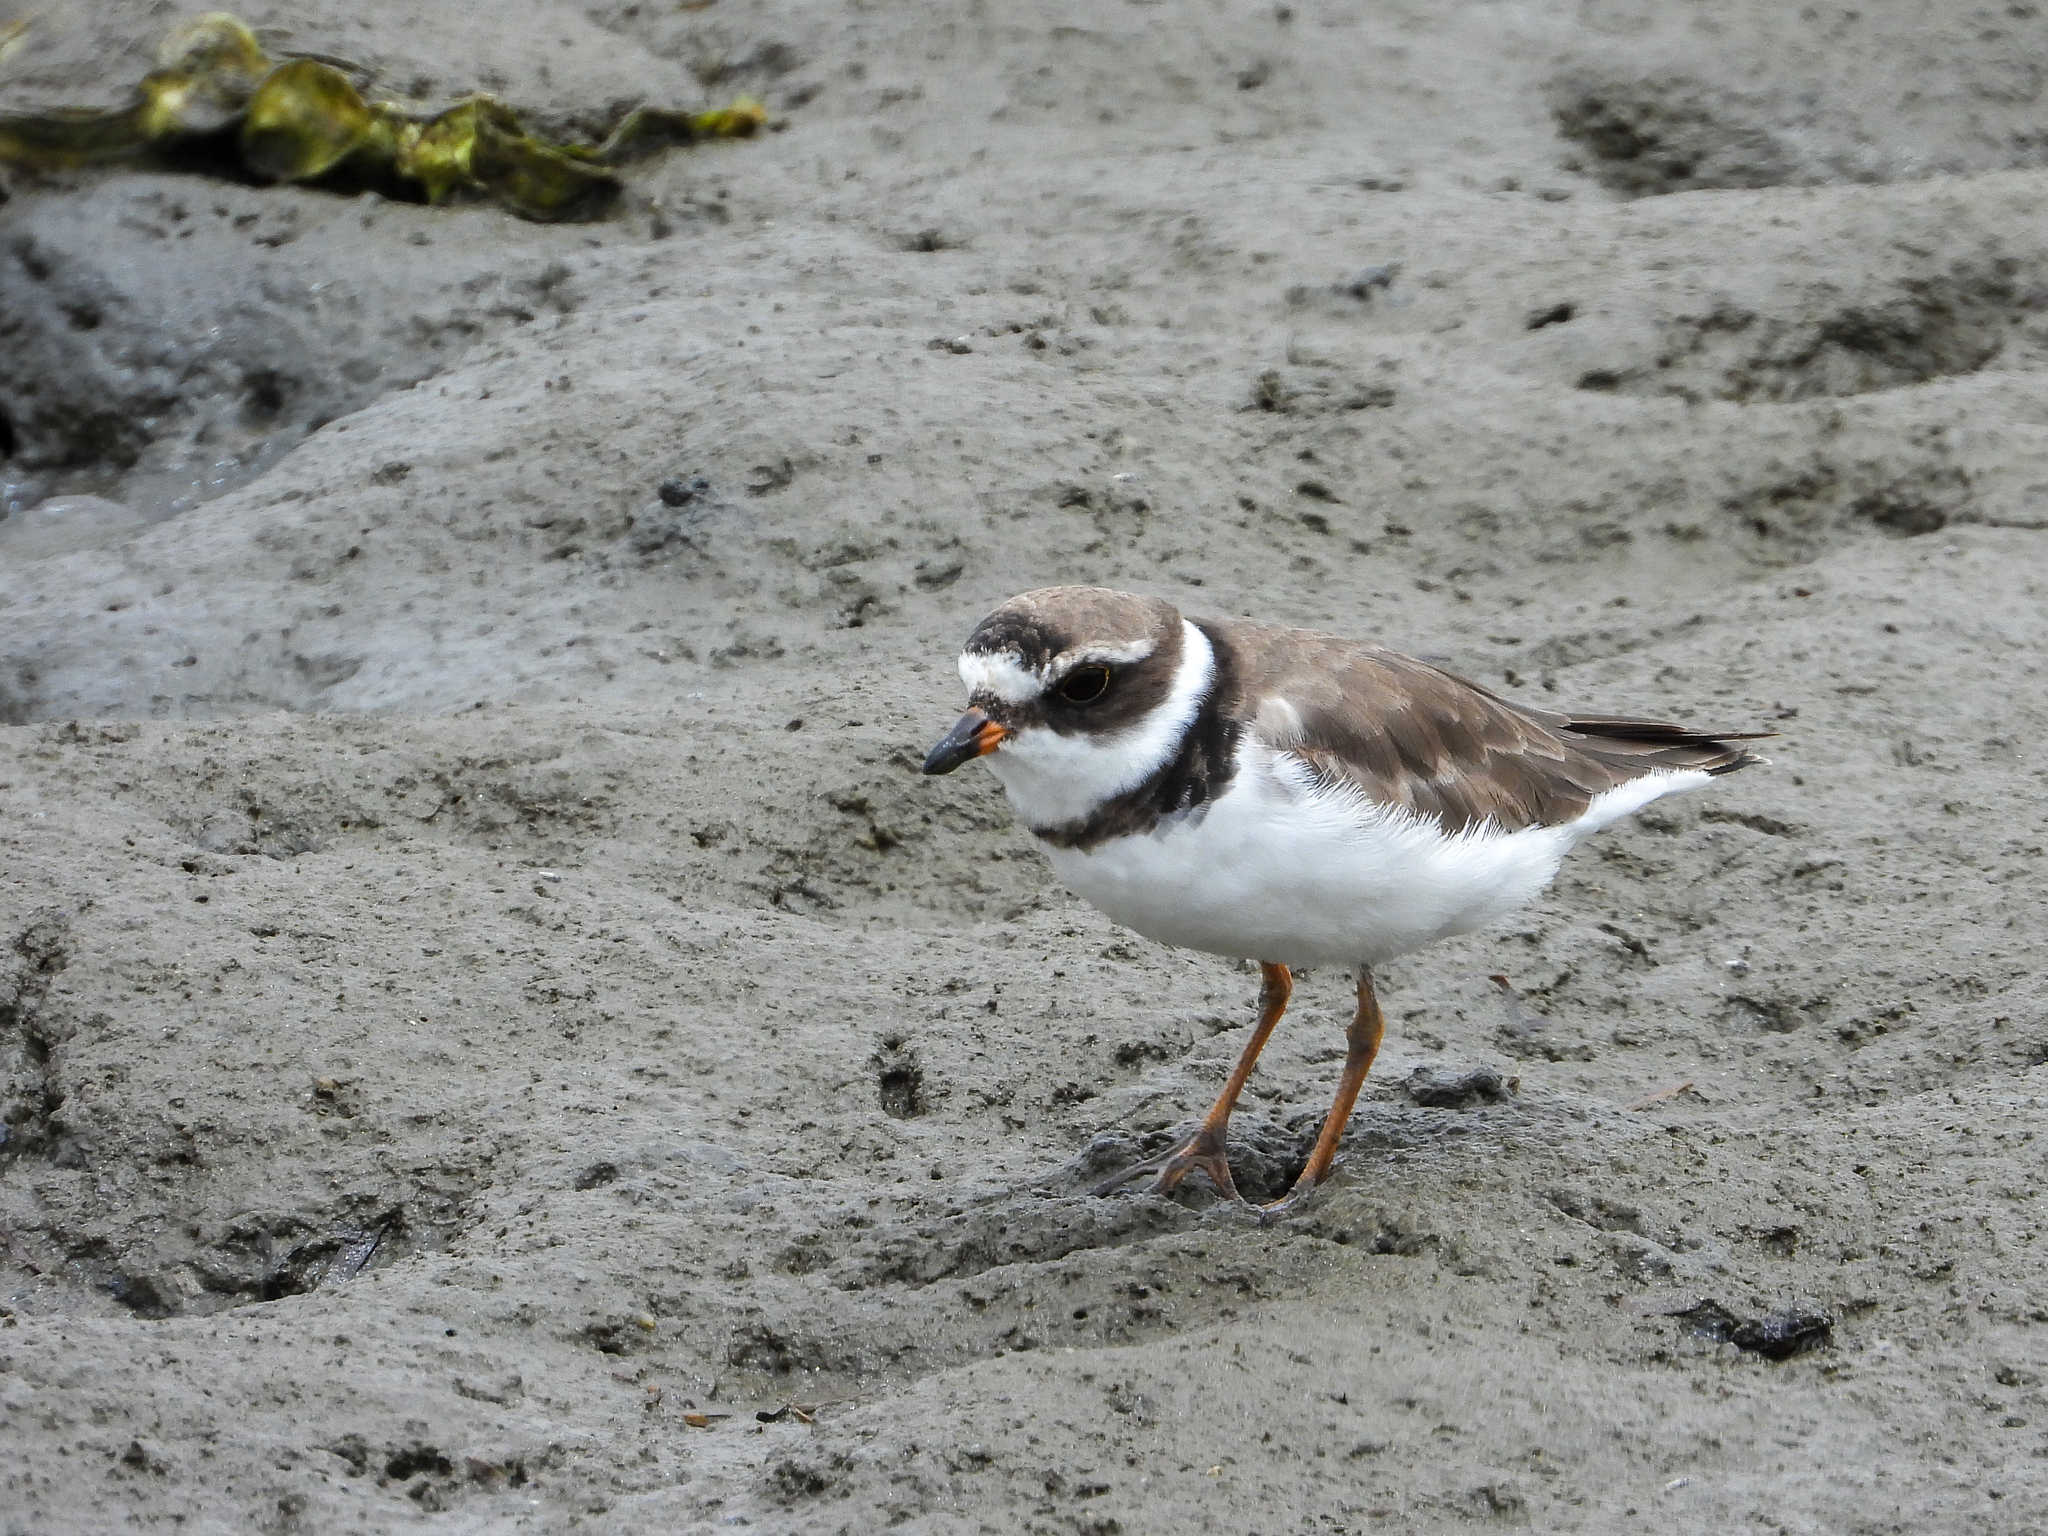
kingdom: Animalia
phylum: Chordata
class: Aves
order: Charadriiformes
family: Charadriidae
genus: Charadrius
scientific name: Charadrius semipalmatus
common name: Semipalmated plover
